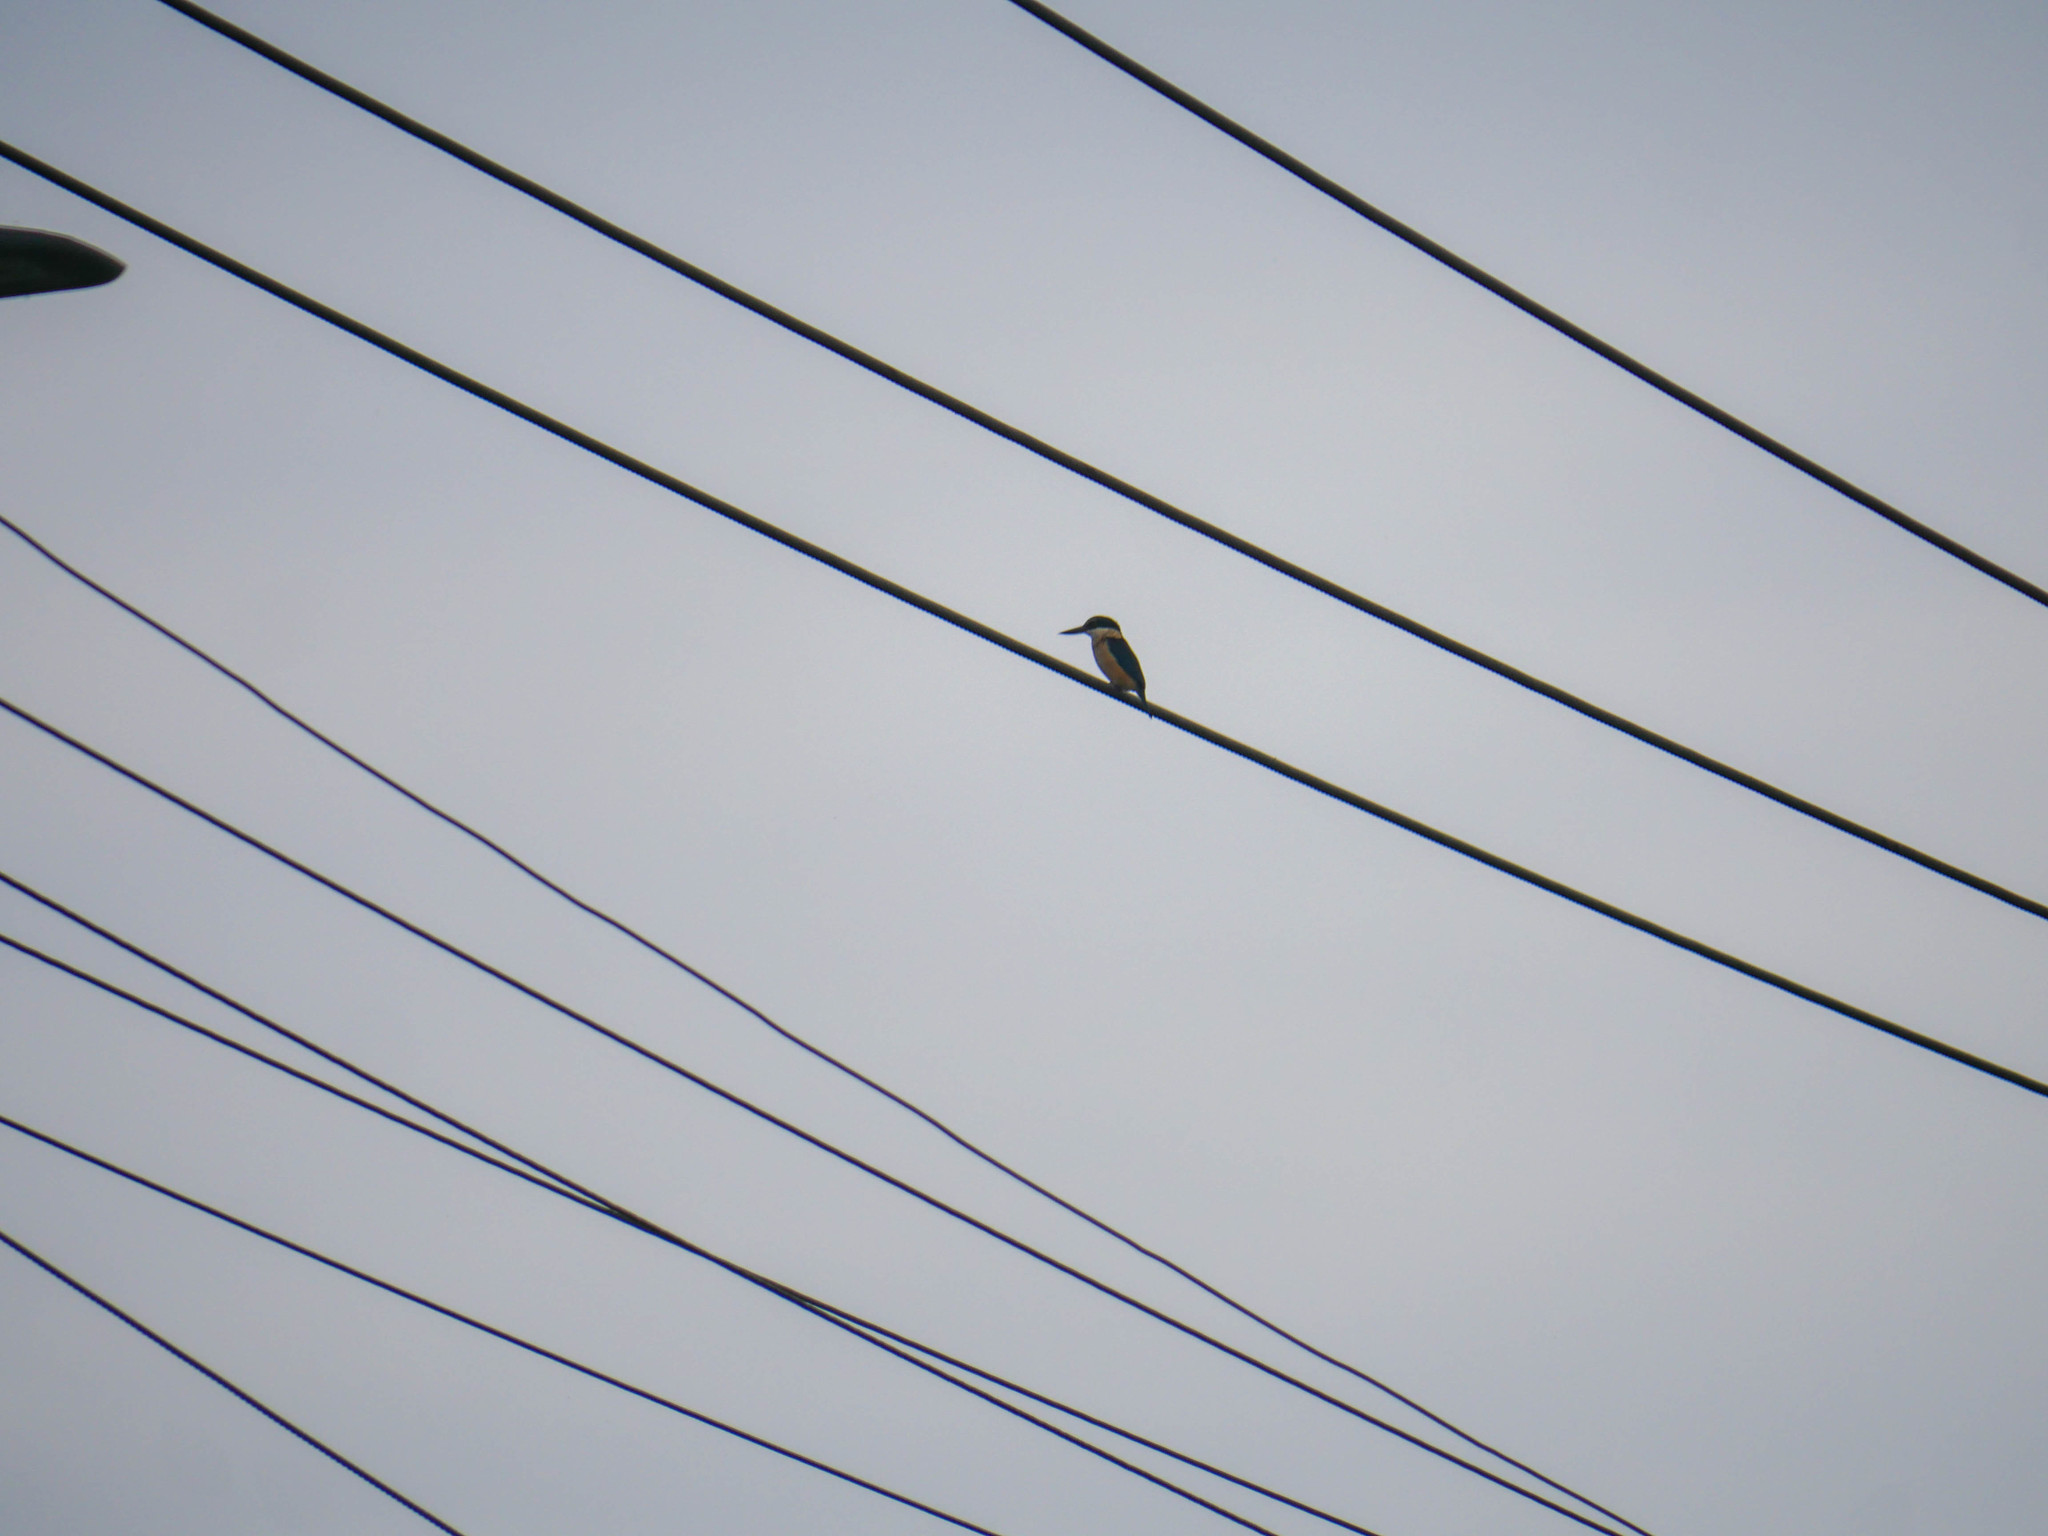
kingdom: Animalia
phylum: Chordata
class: Aves
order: Coraciiformes
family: Alcedinidae
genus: Todiramphus
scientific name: Todiramphus sanctus
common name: Sacred kingfisher
